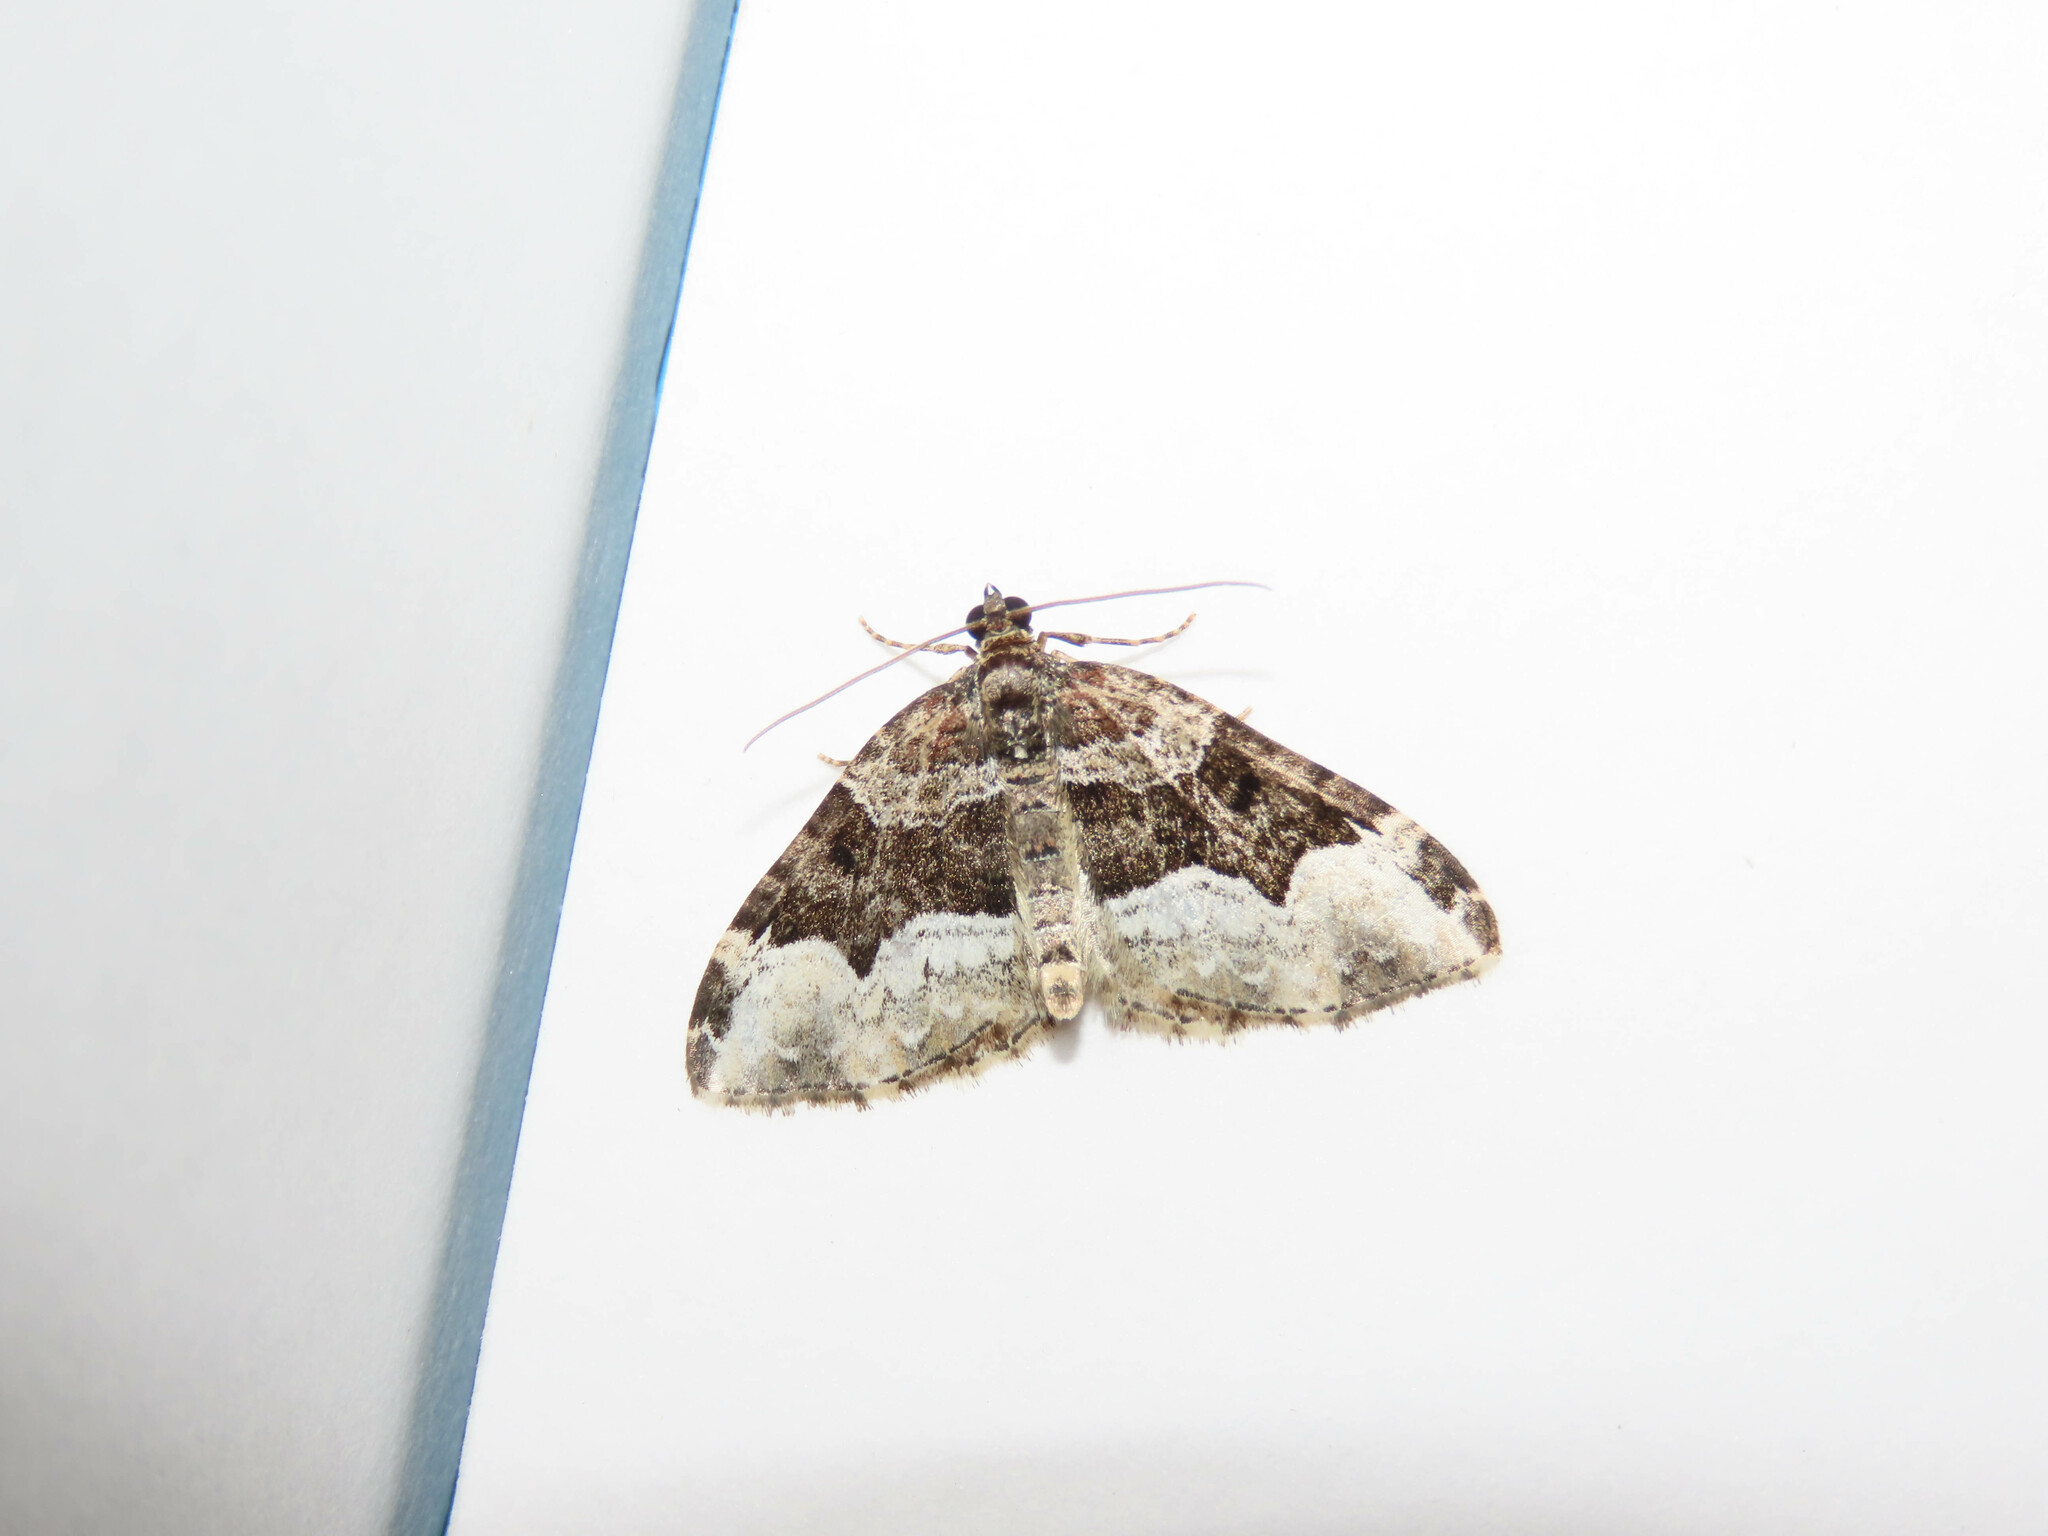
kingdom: Animalia
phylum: Arthropoda
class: Insecta
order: Lepidoptera
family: Geometridae
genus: Euphyia
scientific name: Euphyia intermediata
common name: Sharp-angled carpet
